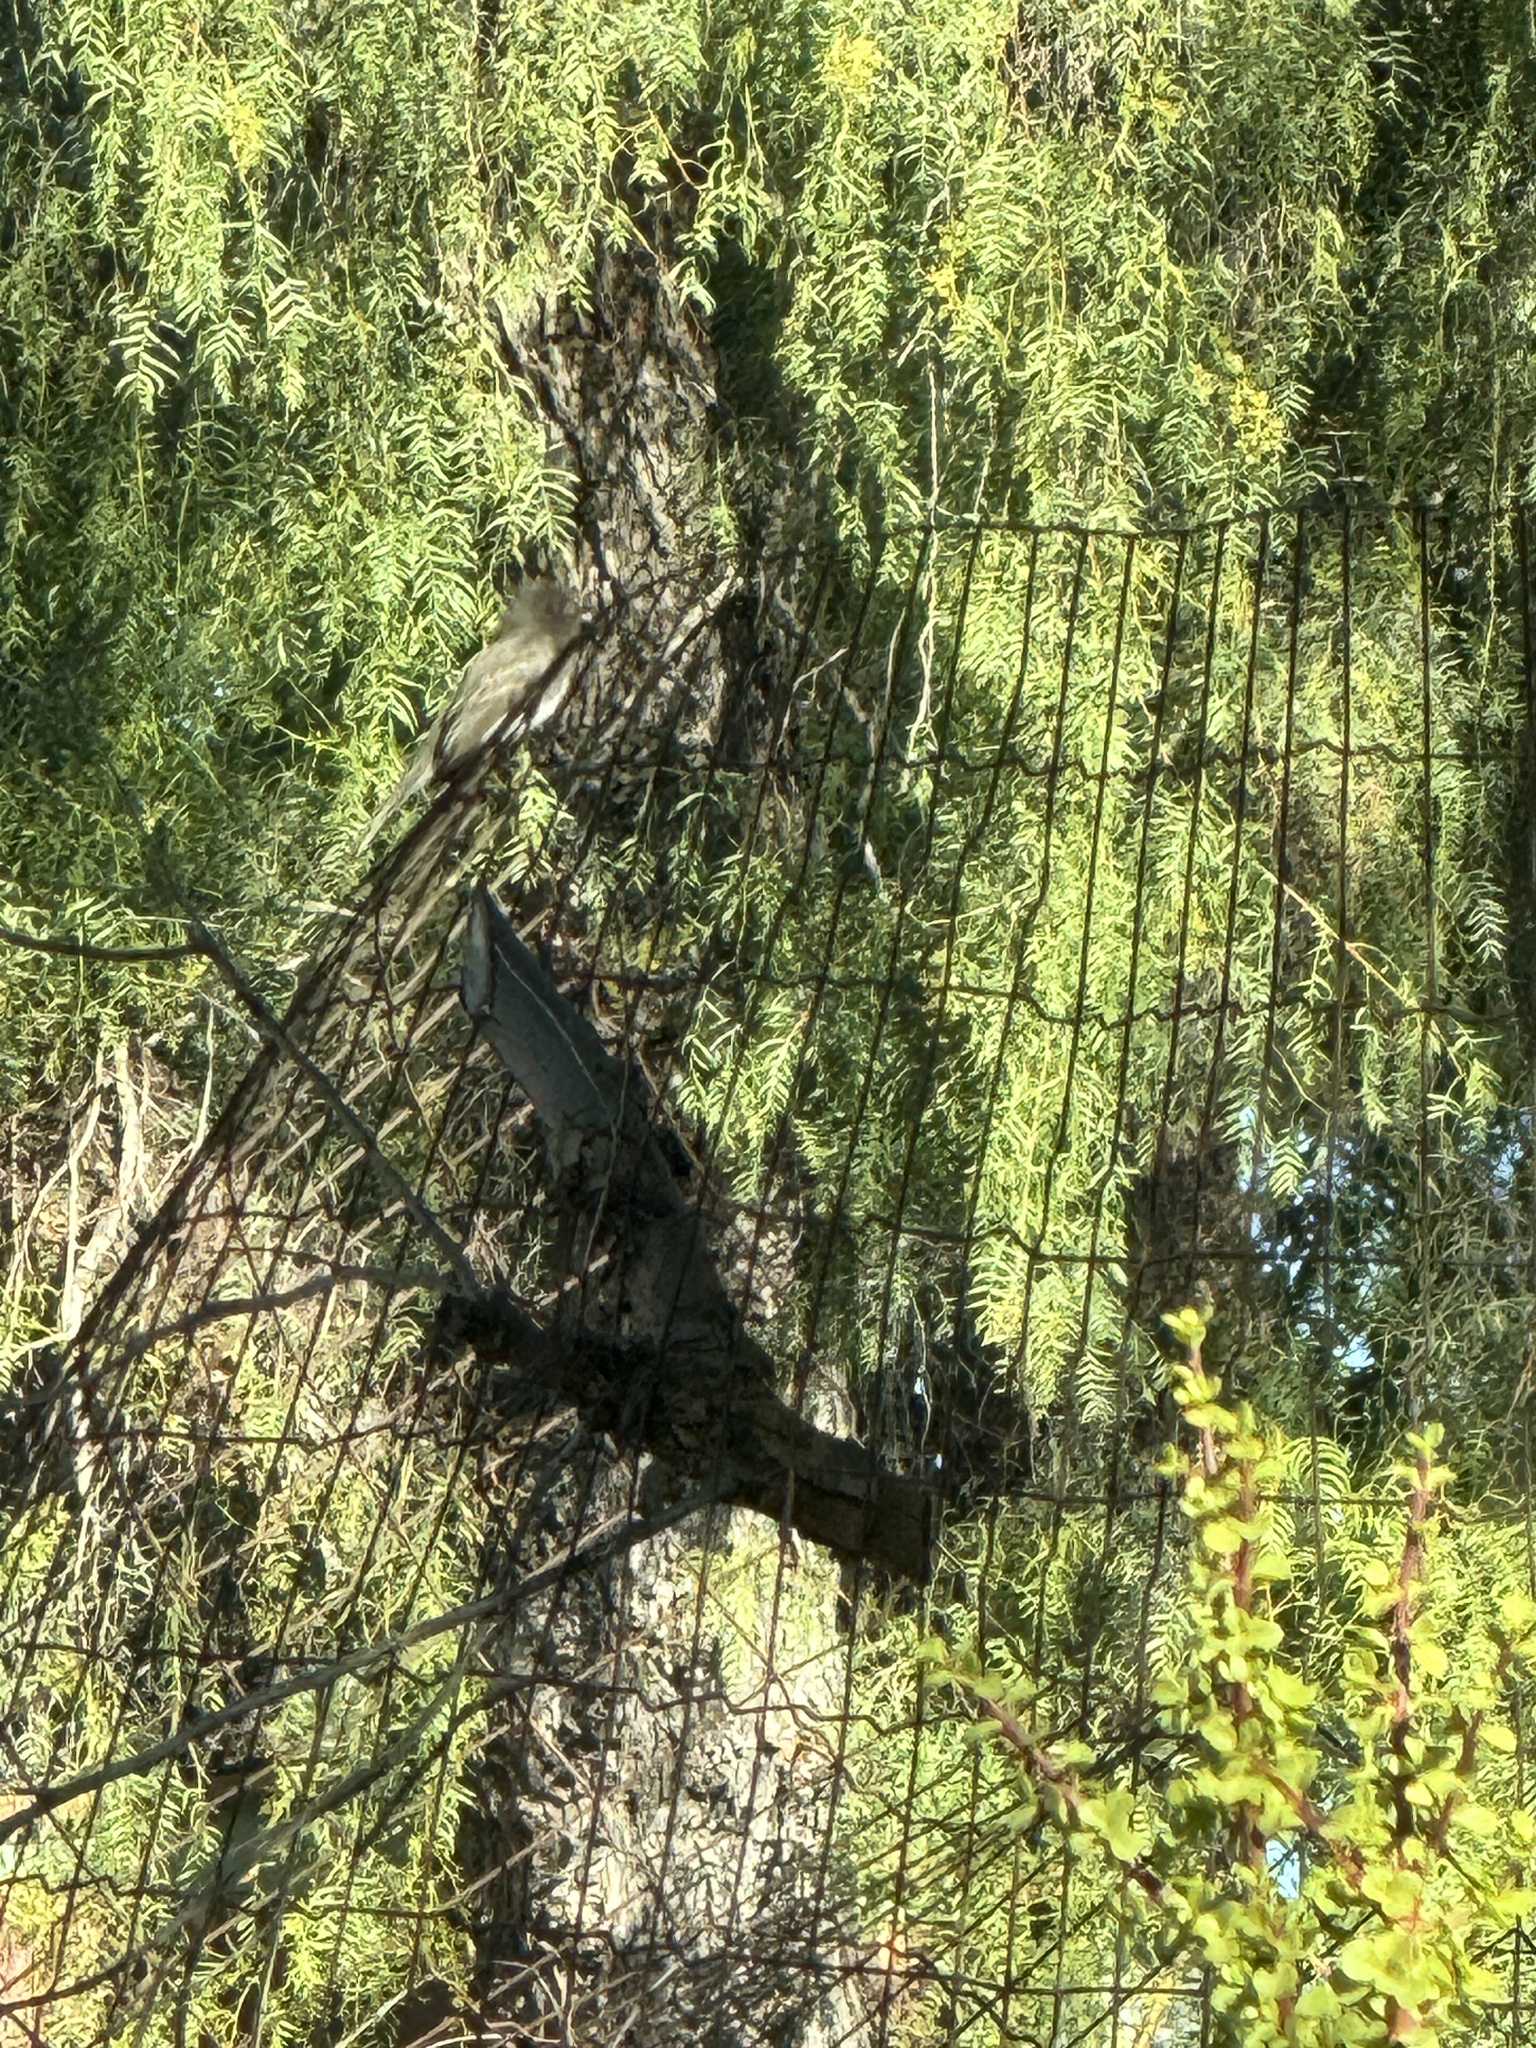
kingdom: Animalia
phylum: Chordata
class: Aves
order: Passeriformes
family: Tyrannidae
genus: Sayornis
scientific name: Sayornis nigricans
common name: Black phoebe
